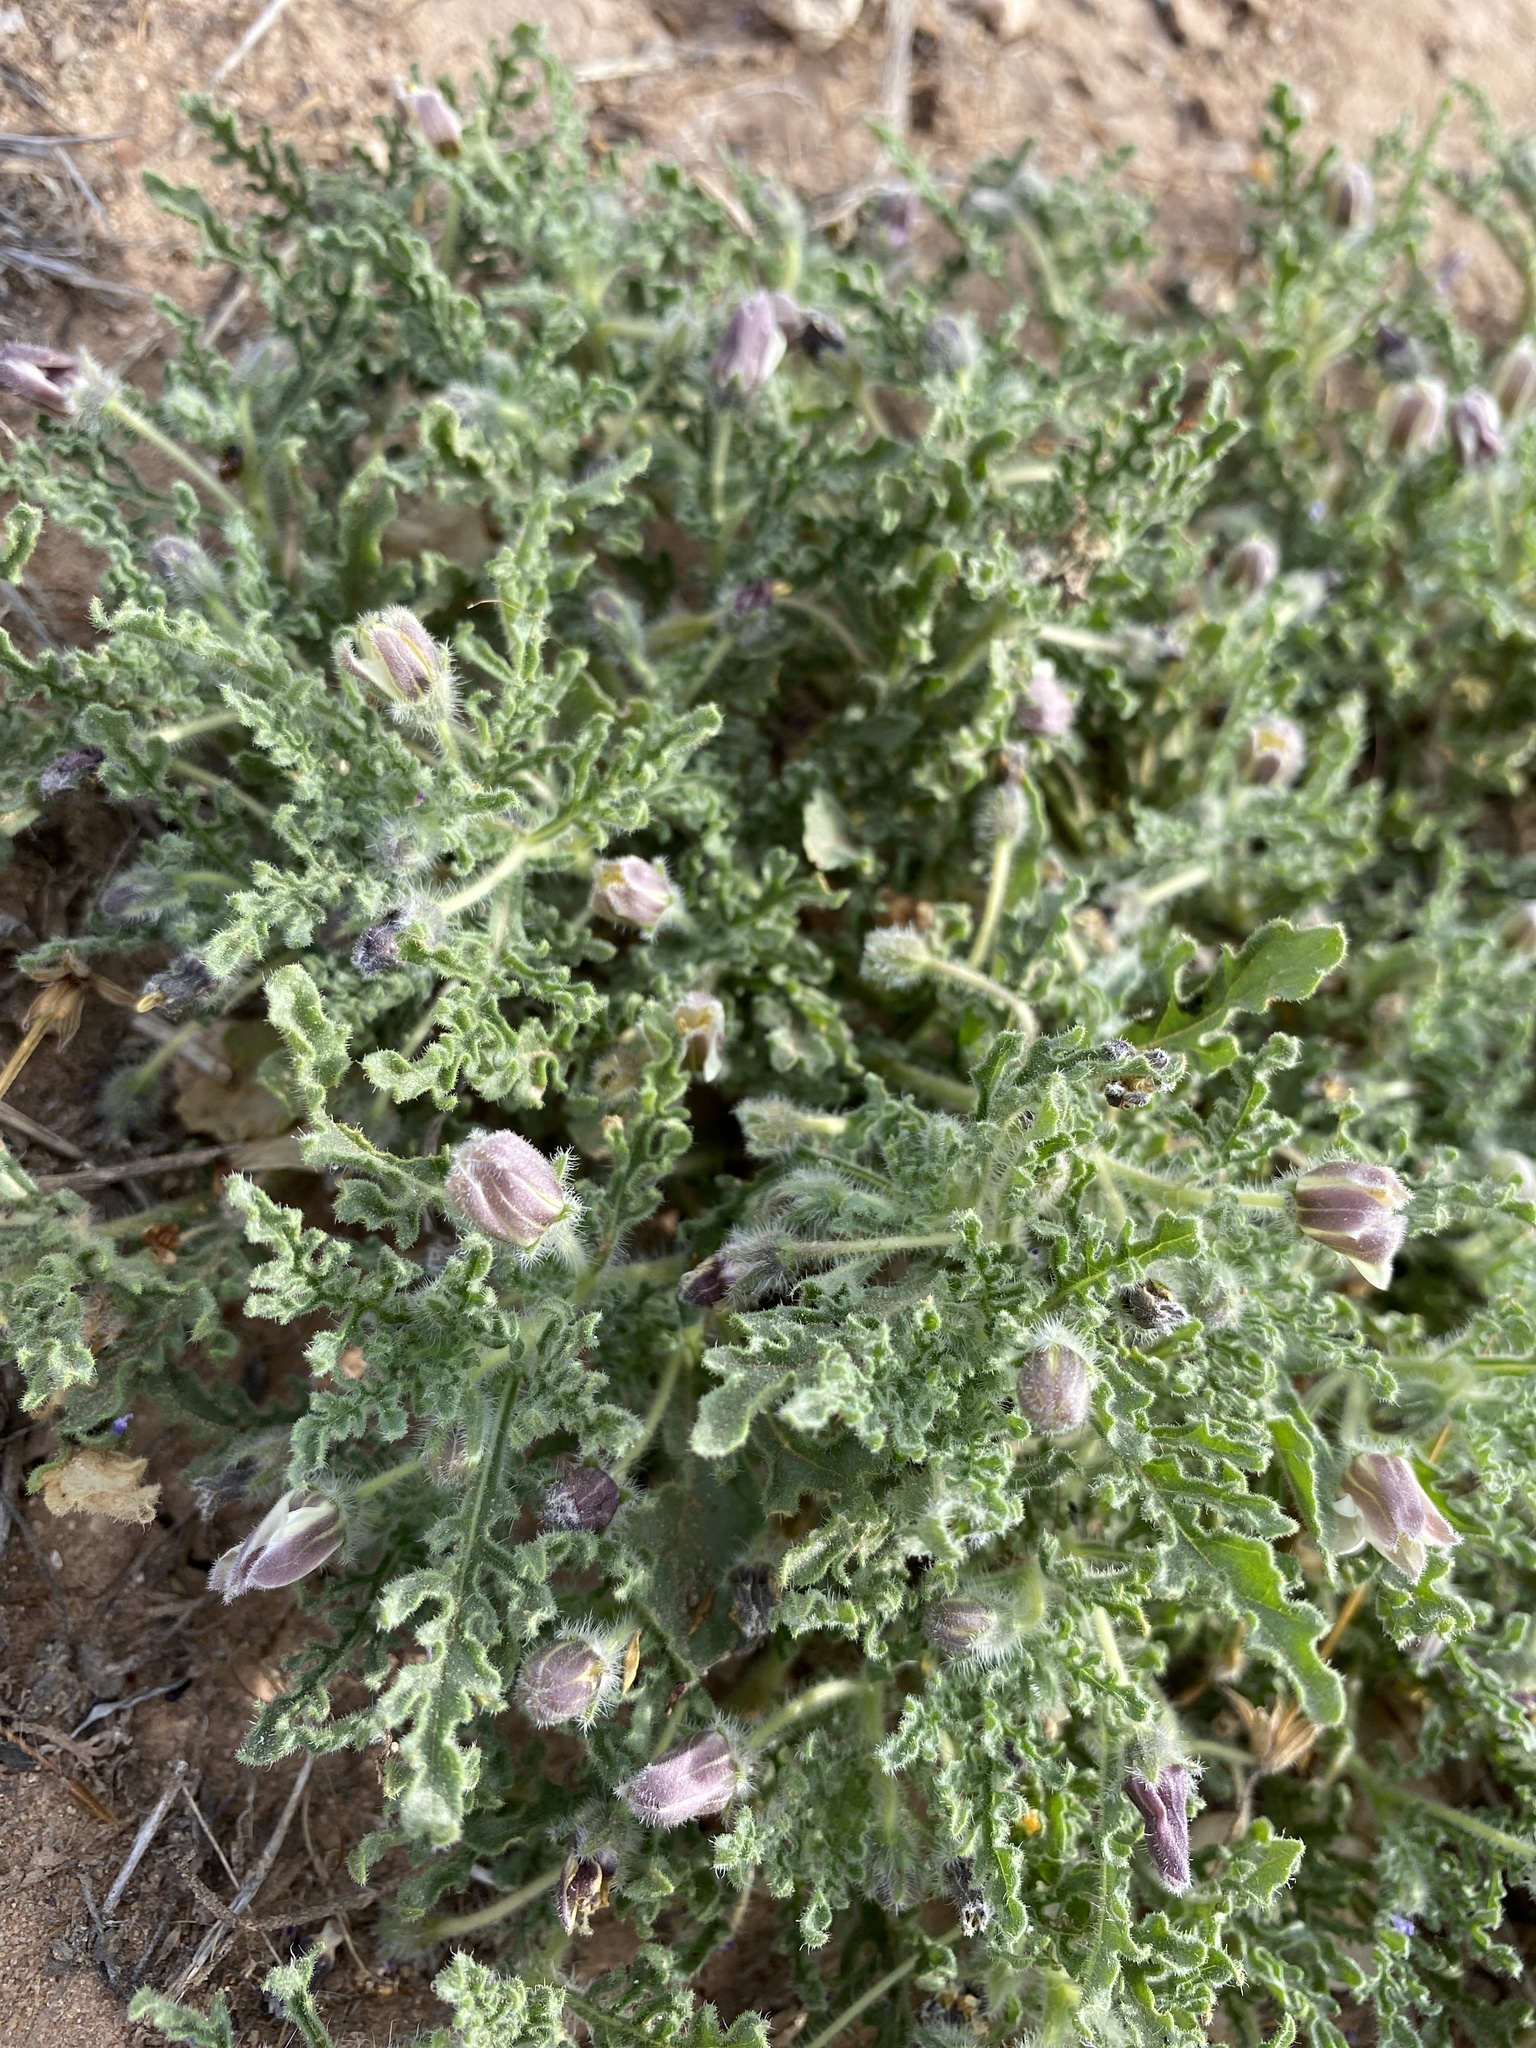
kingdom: Plantae
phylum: Tracheophyta
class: Magnoliopsida
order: Solanales
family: Solanaceae
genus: Chamaesaracha
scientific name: Chamaesaracha coniodes
